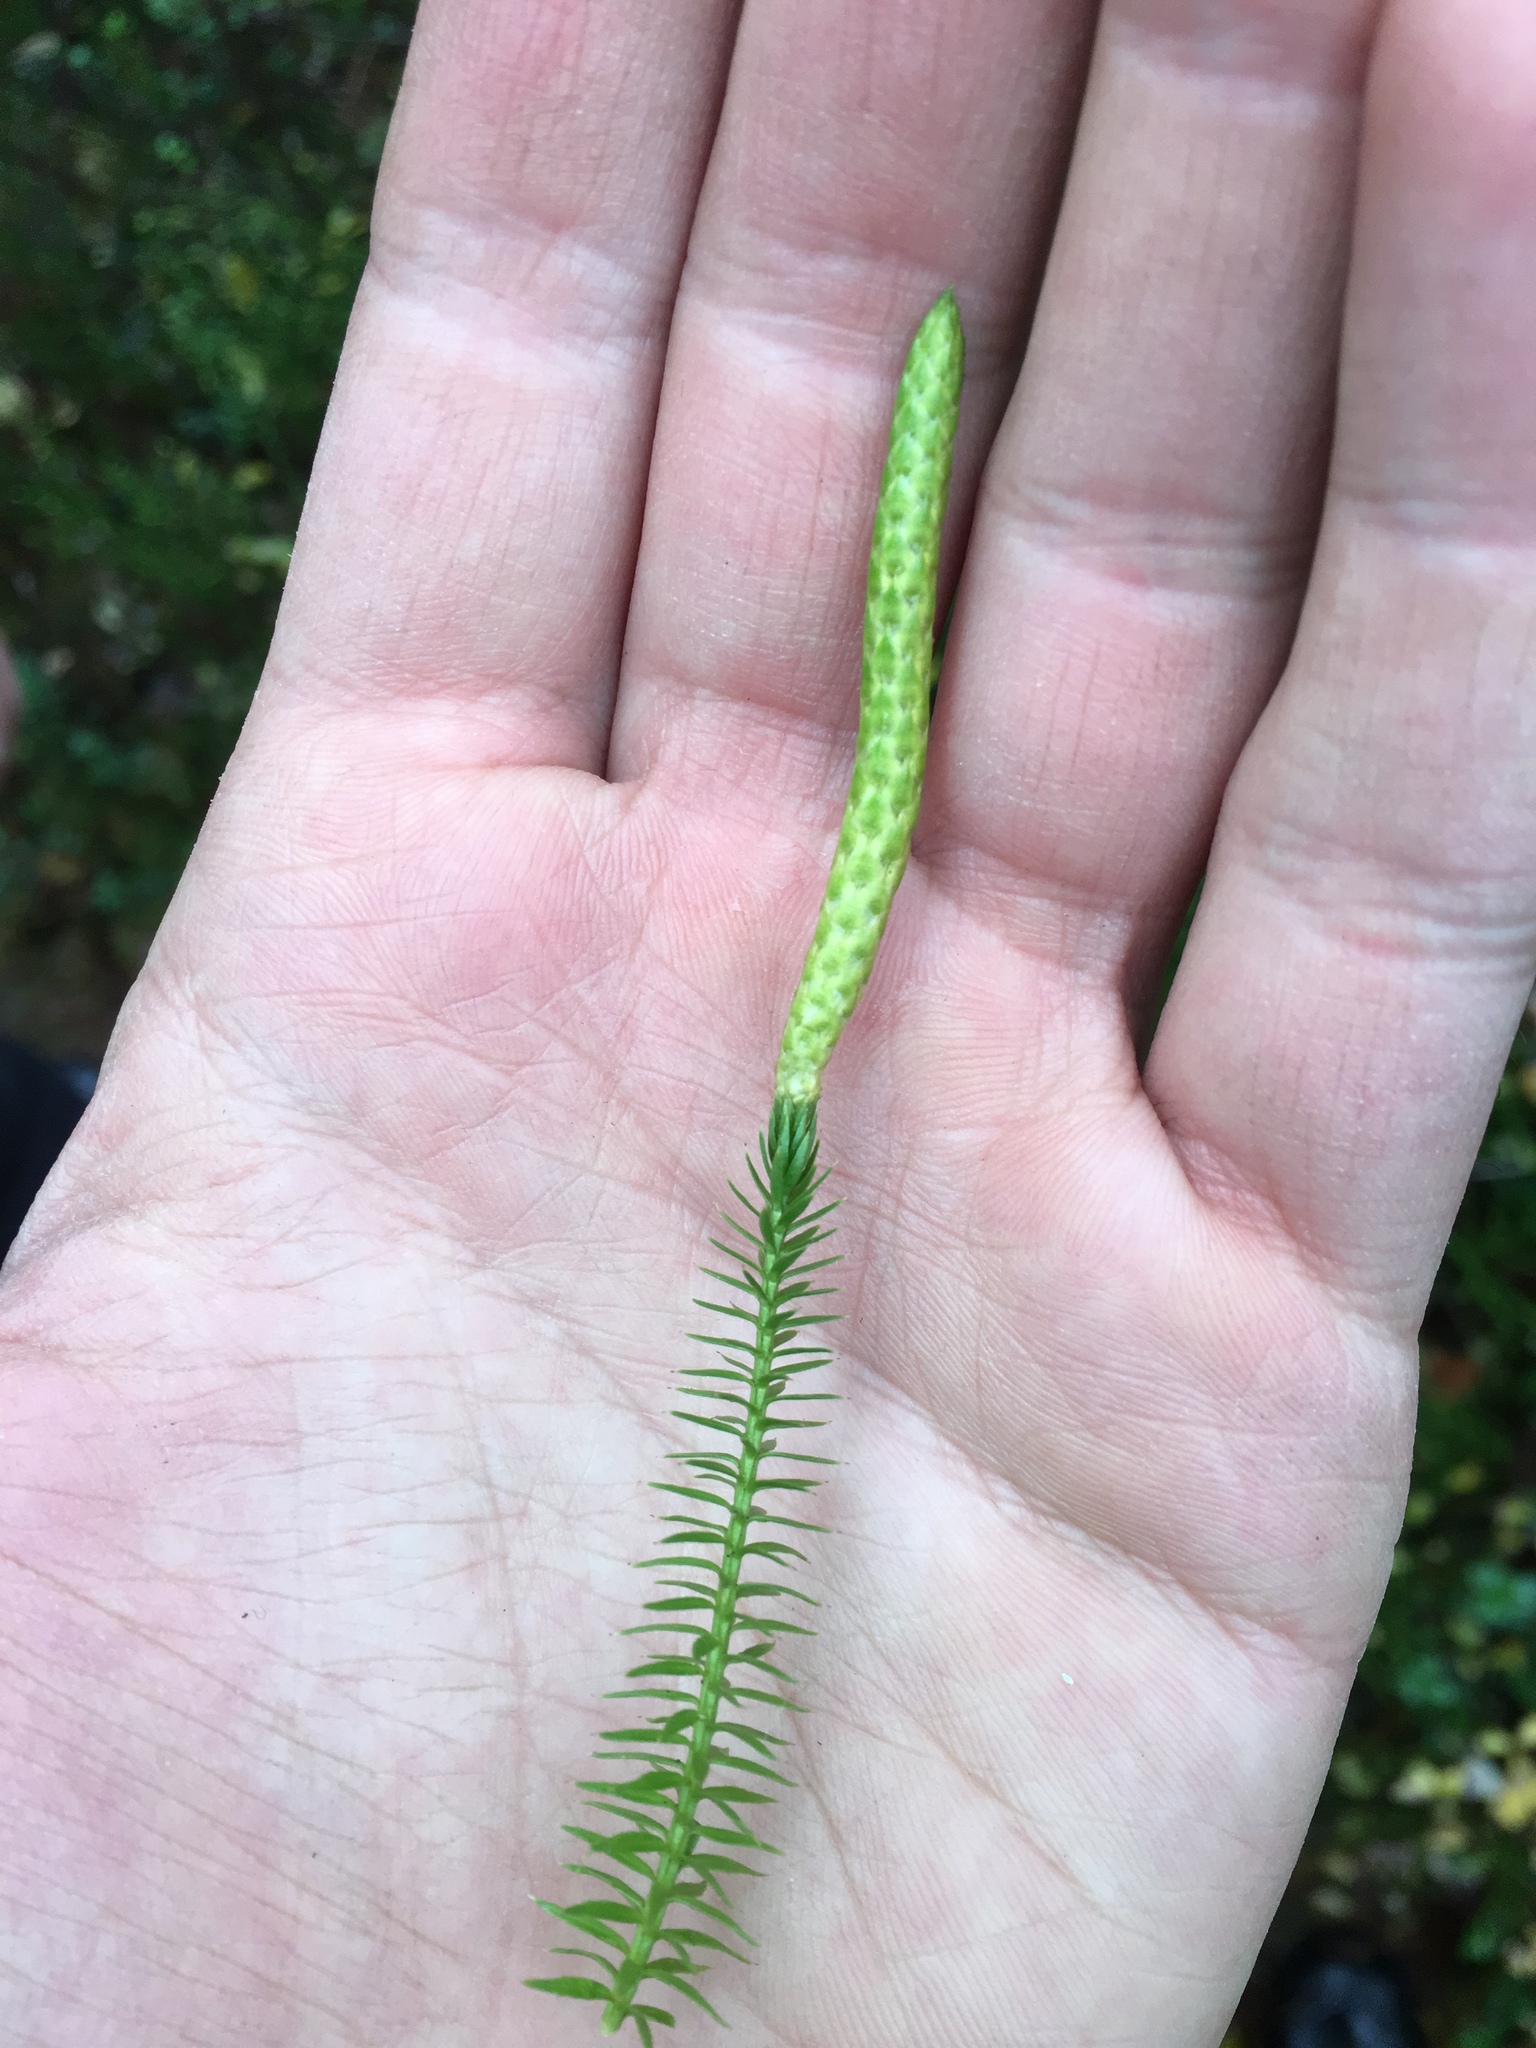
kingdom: Plantae
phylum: Tracheophyta
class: Lycopodiopsida
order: Lycopodiales
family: Lycopodiaceae
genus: Spinulum
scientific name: Spinulum annotinum
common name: Interrupted club-moss
